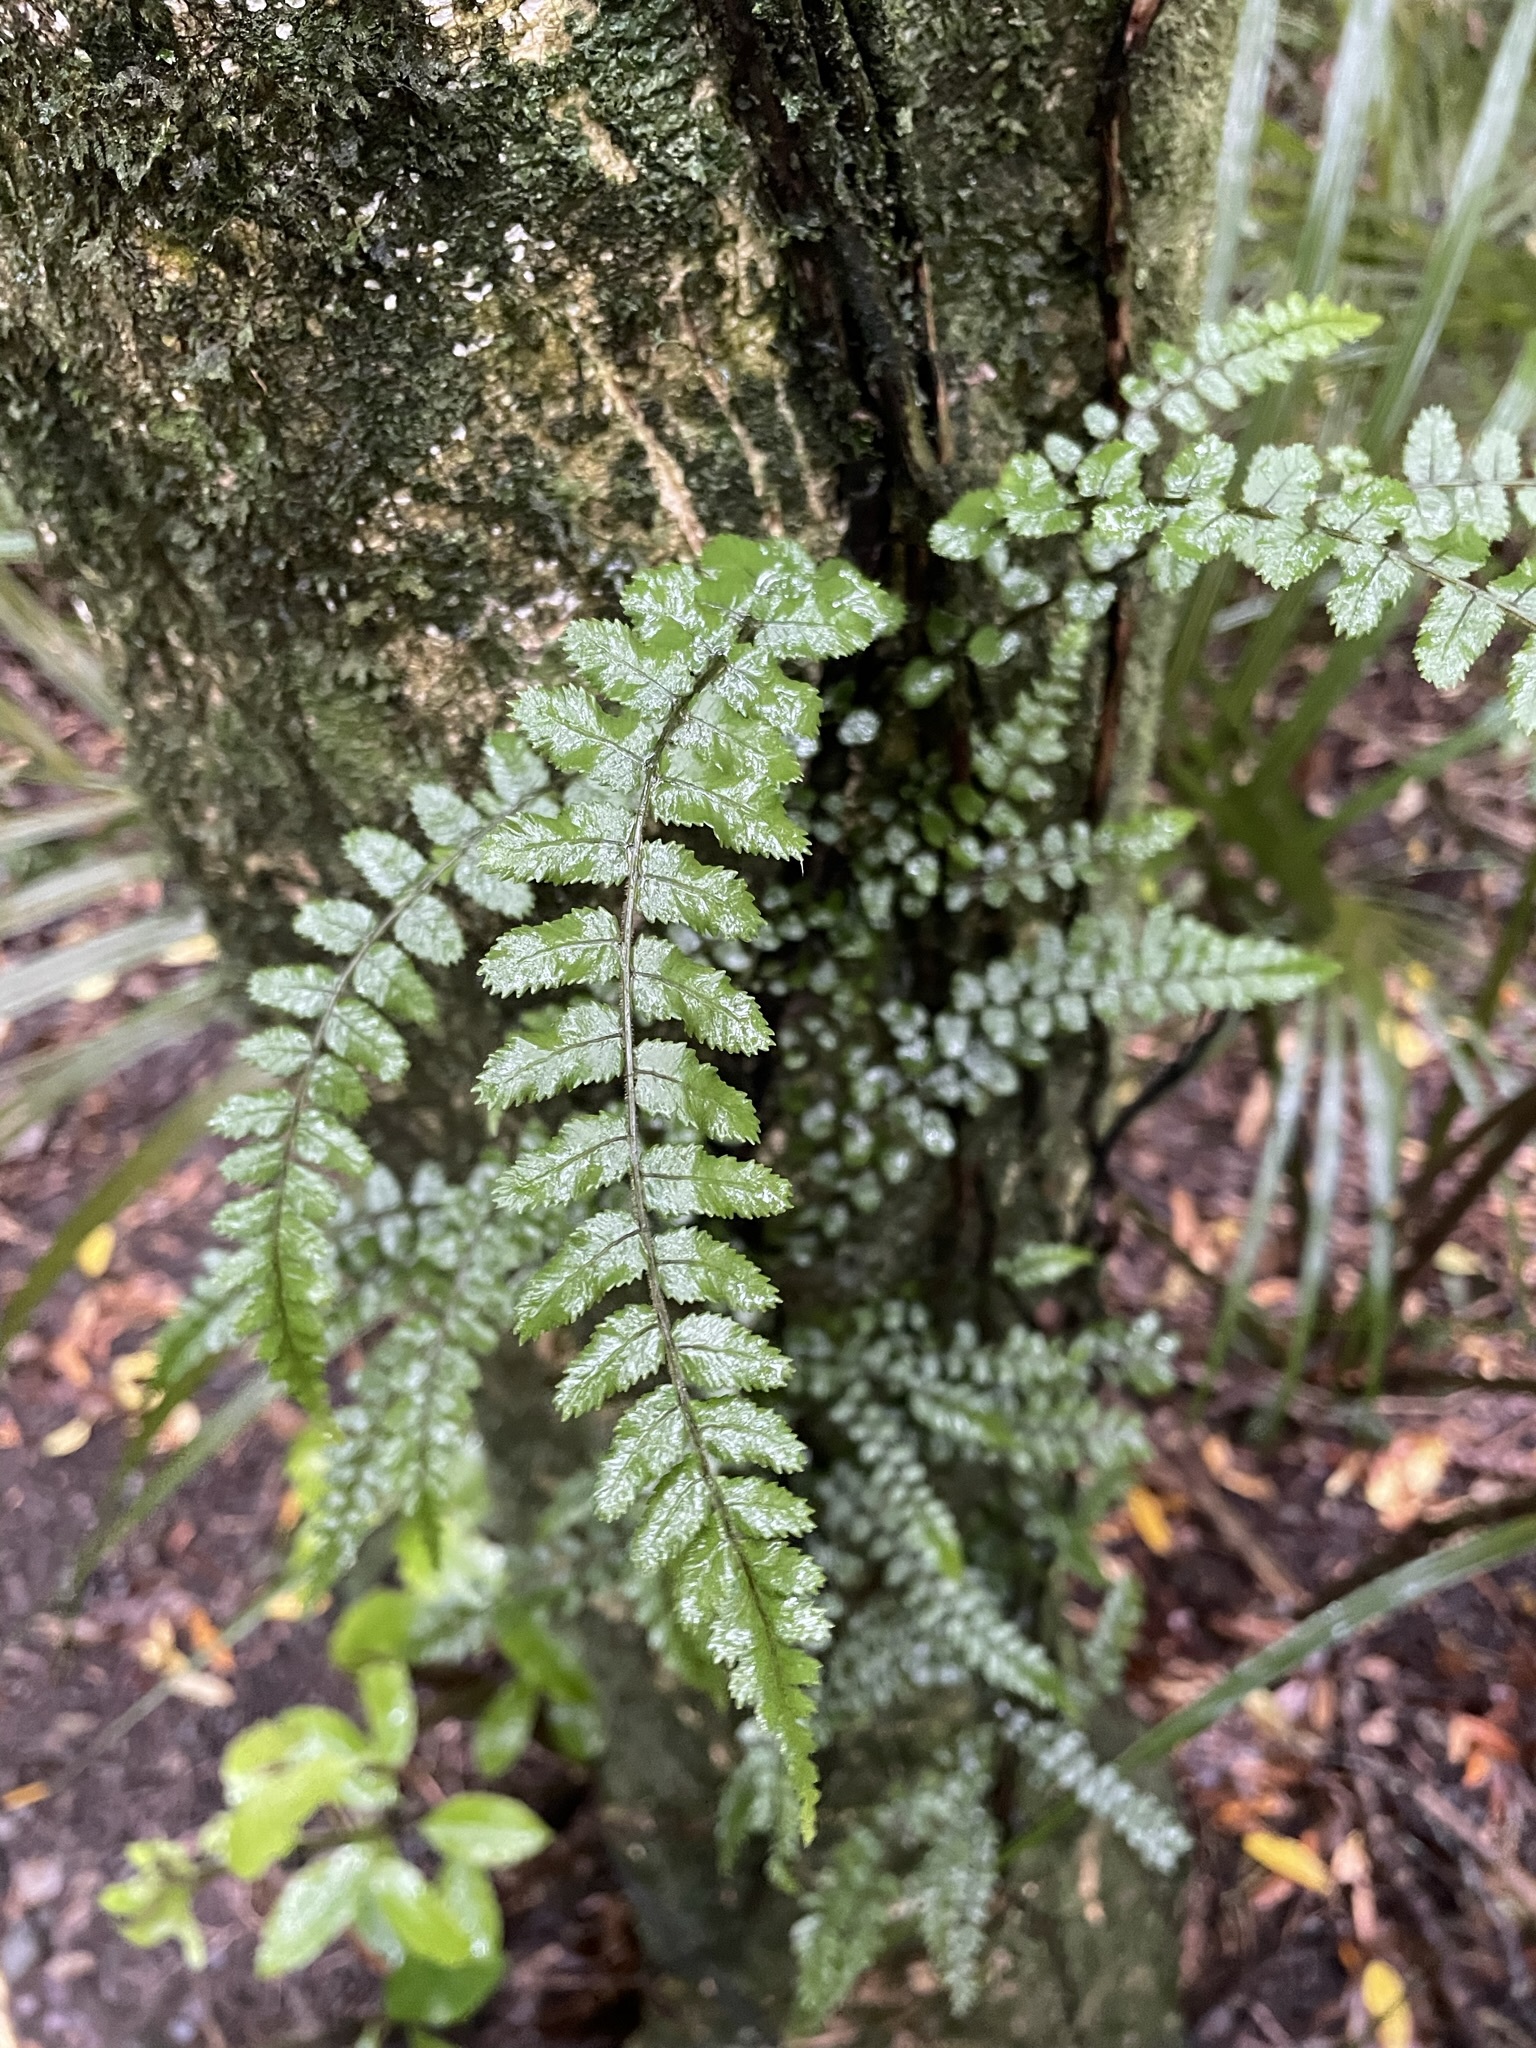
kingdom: Plantae
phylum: Tracheophyta
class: Polypodiopsida
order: Polypodiales
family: Blechnaceae
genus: Icarus
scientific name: Icarus filiformis
